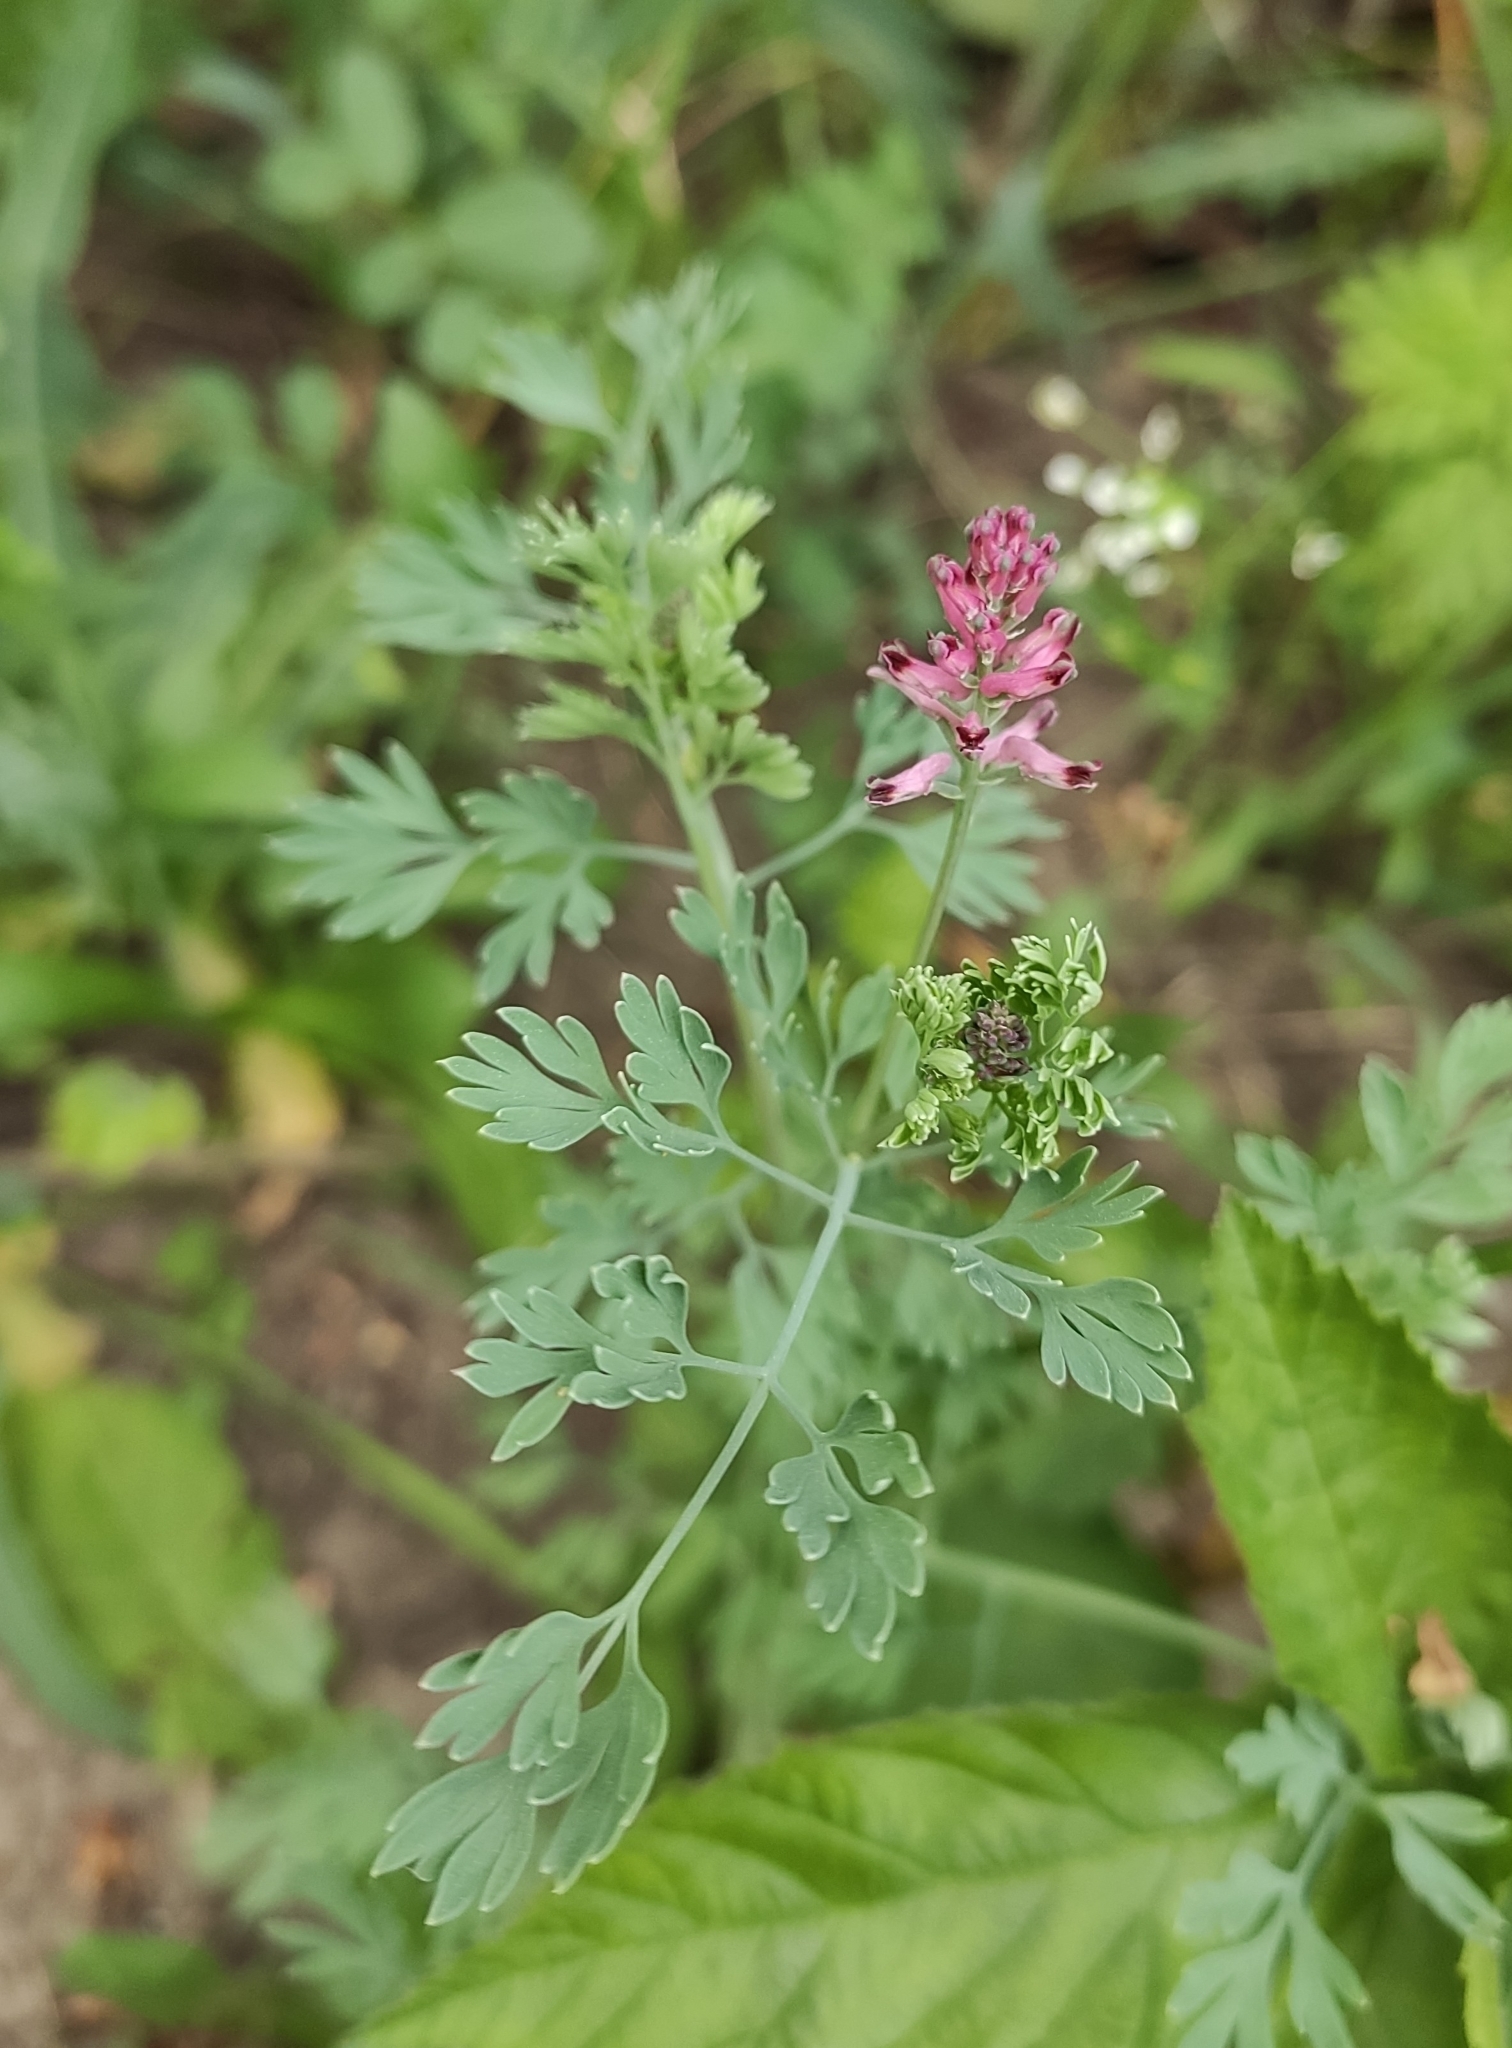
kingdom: Plantae
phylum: Tracheophyta
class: Magnoliopsida
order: Ranunculales
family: Papaveraceae
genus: Fumaria
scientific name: Fumaria schleicheri
